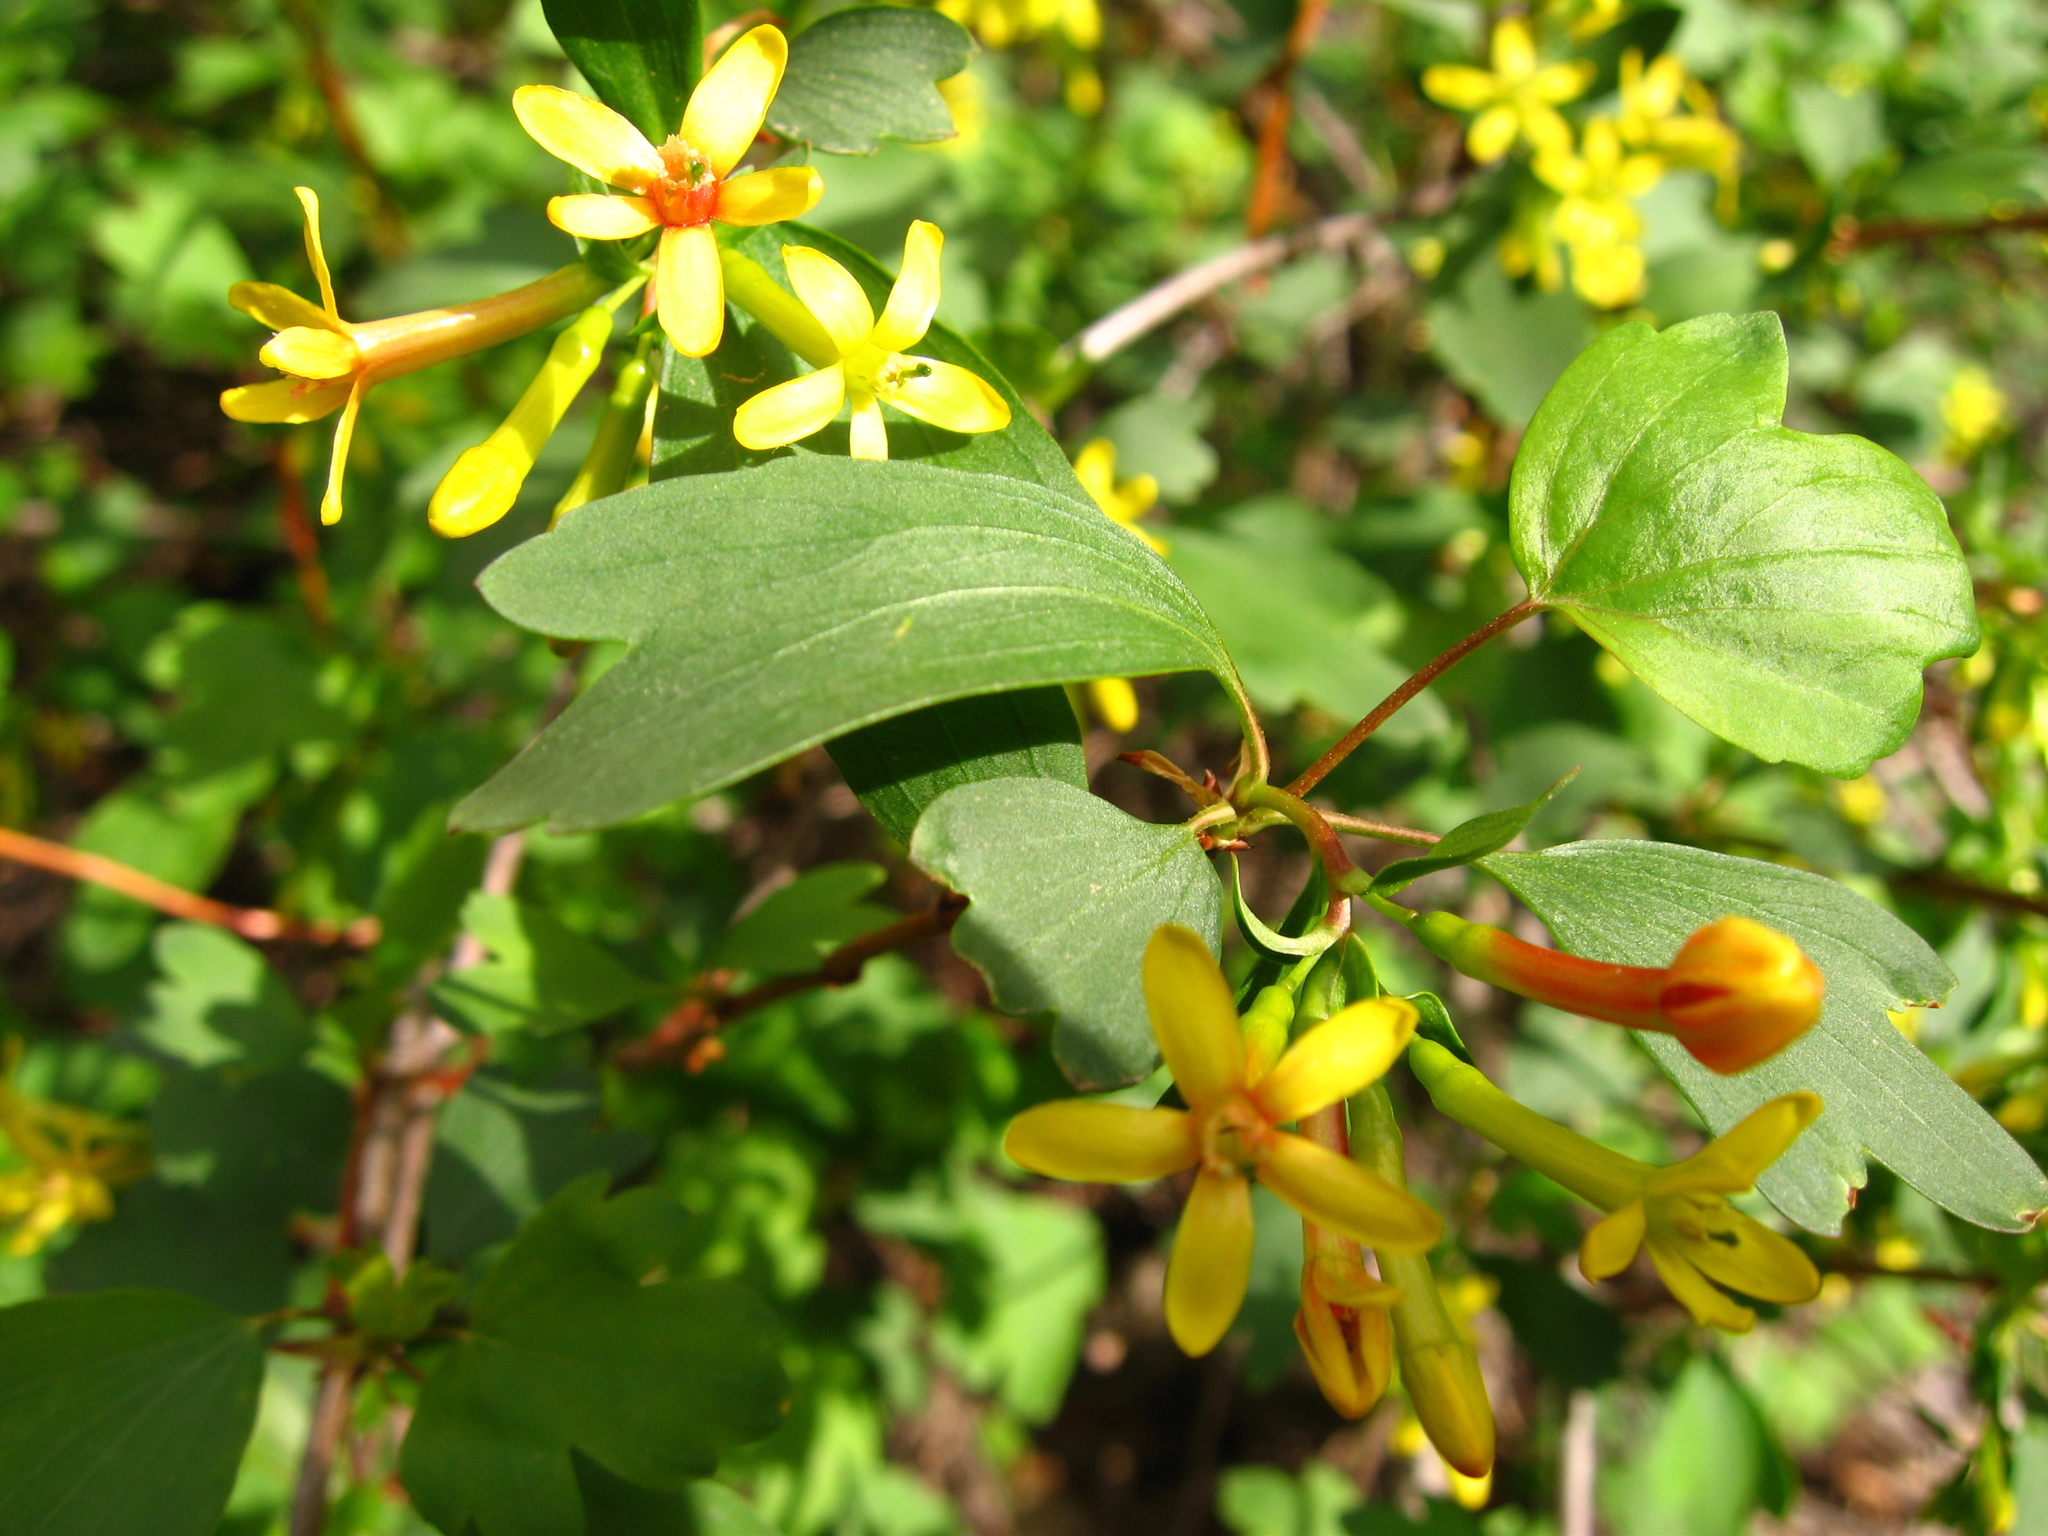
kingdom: Plantae
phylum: Tracheophyta
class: Magnoliopsida
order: Saxifragales
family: Grossulariaceae
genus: Ribes
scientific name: Ribes aureum
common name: Golden currant
